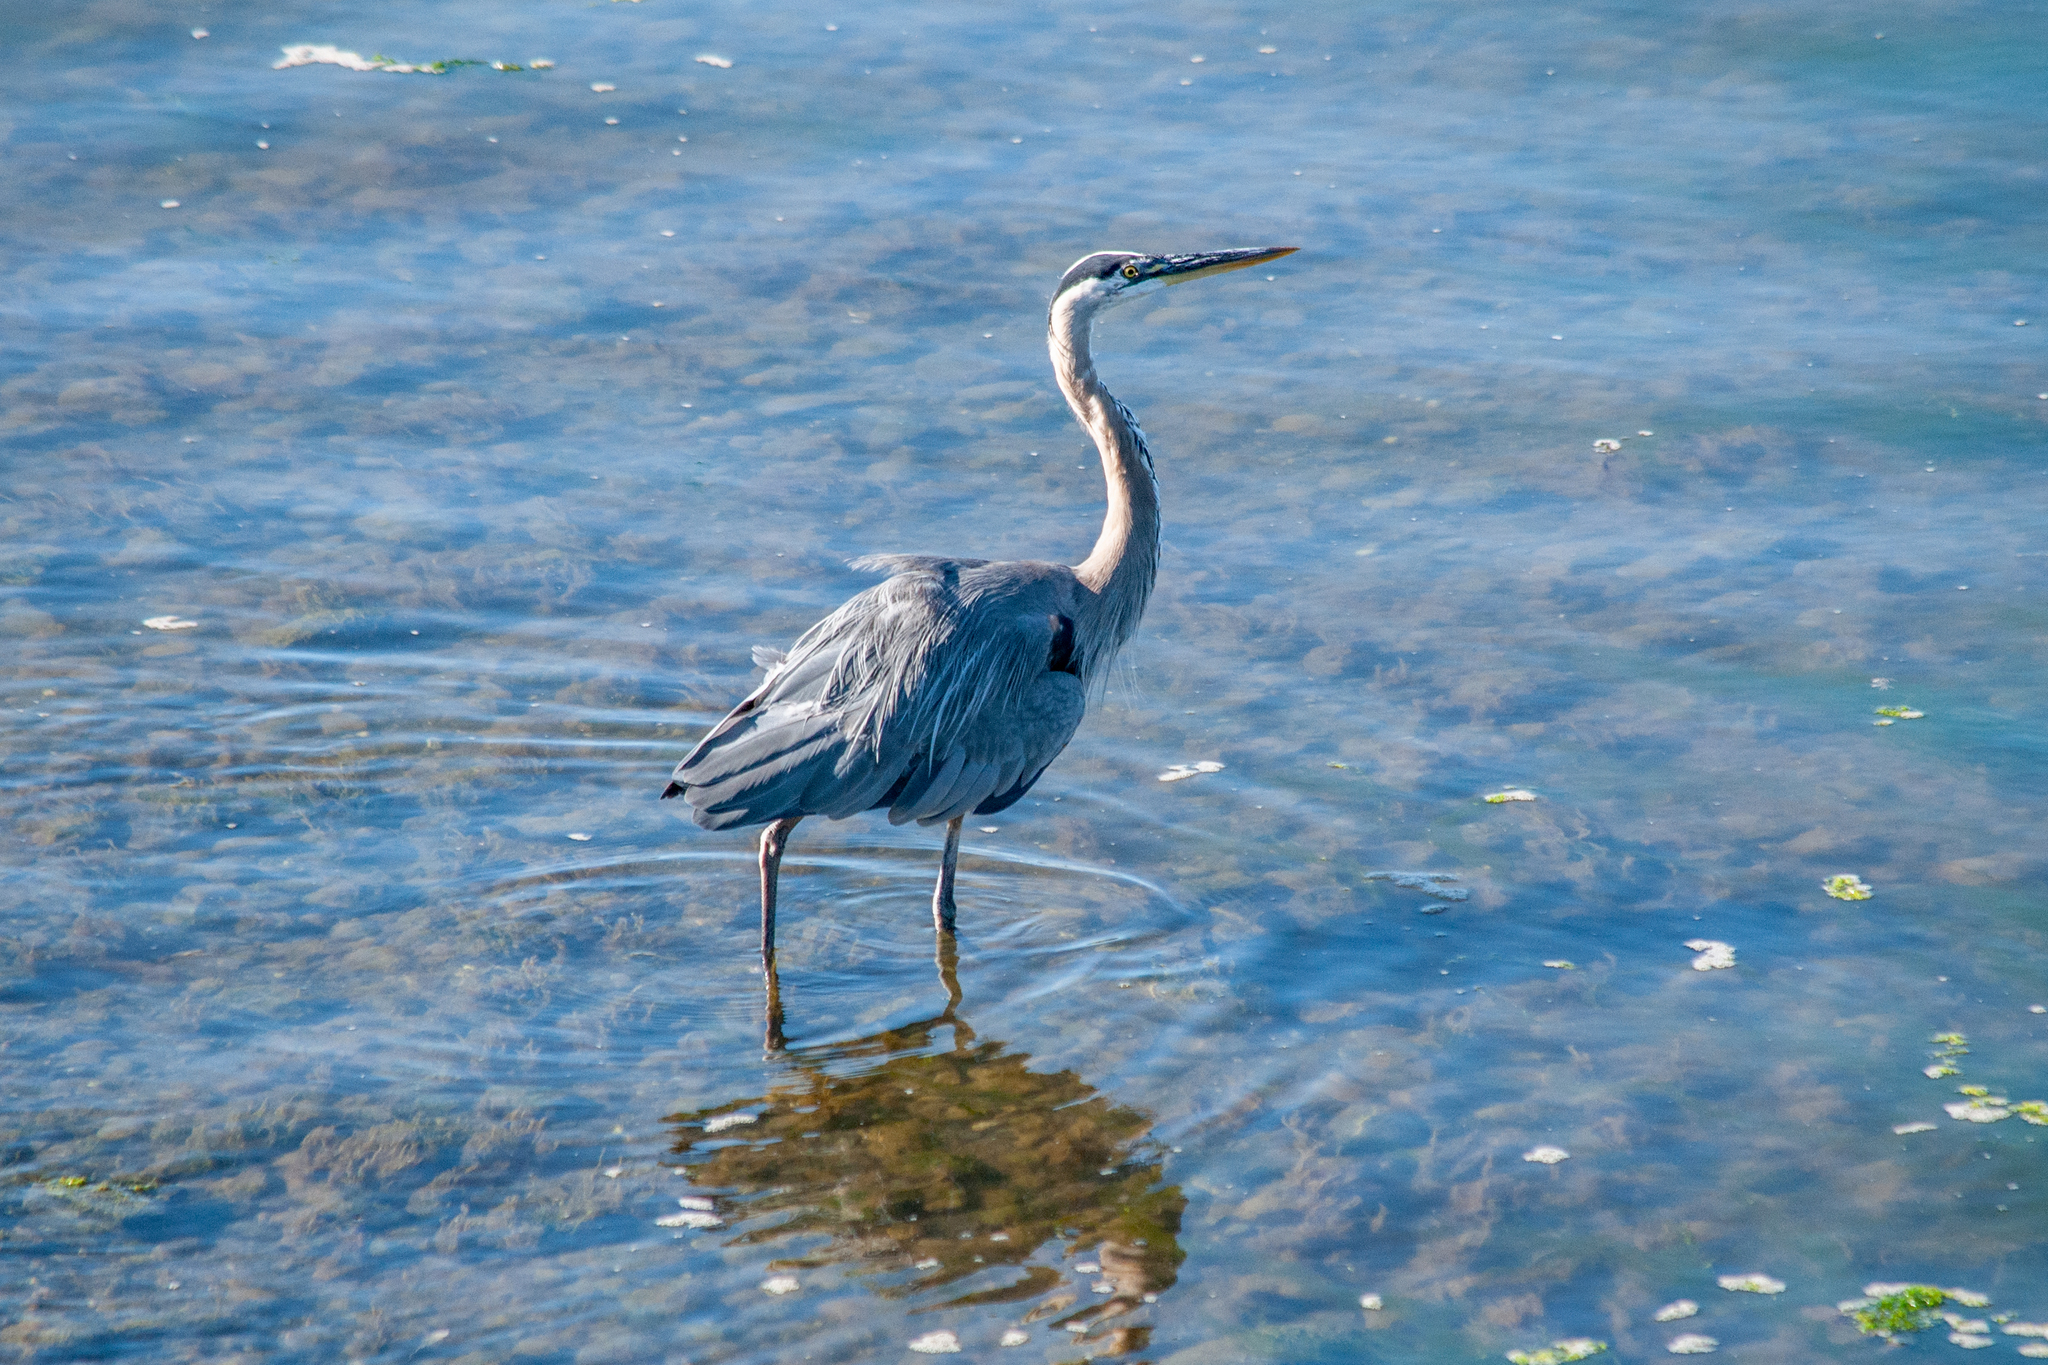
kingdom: Animalia
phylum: Chordata
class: Aves
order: Pelecaniformes
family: Ardeidae
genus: Ardea
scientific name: Ardea herodias
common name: Great blue heron
